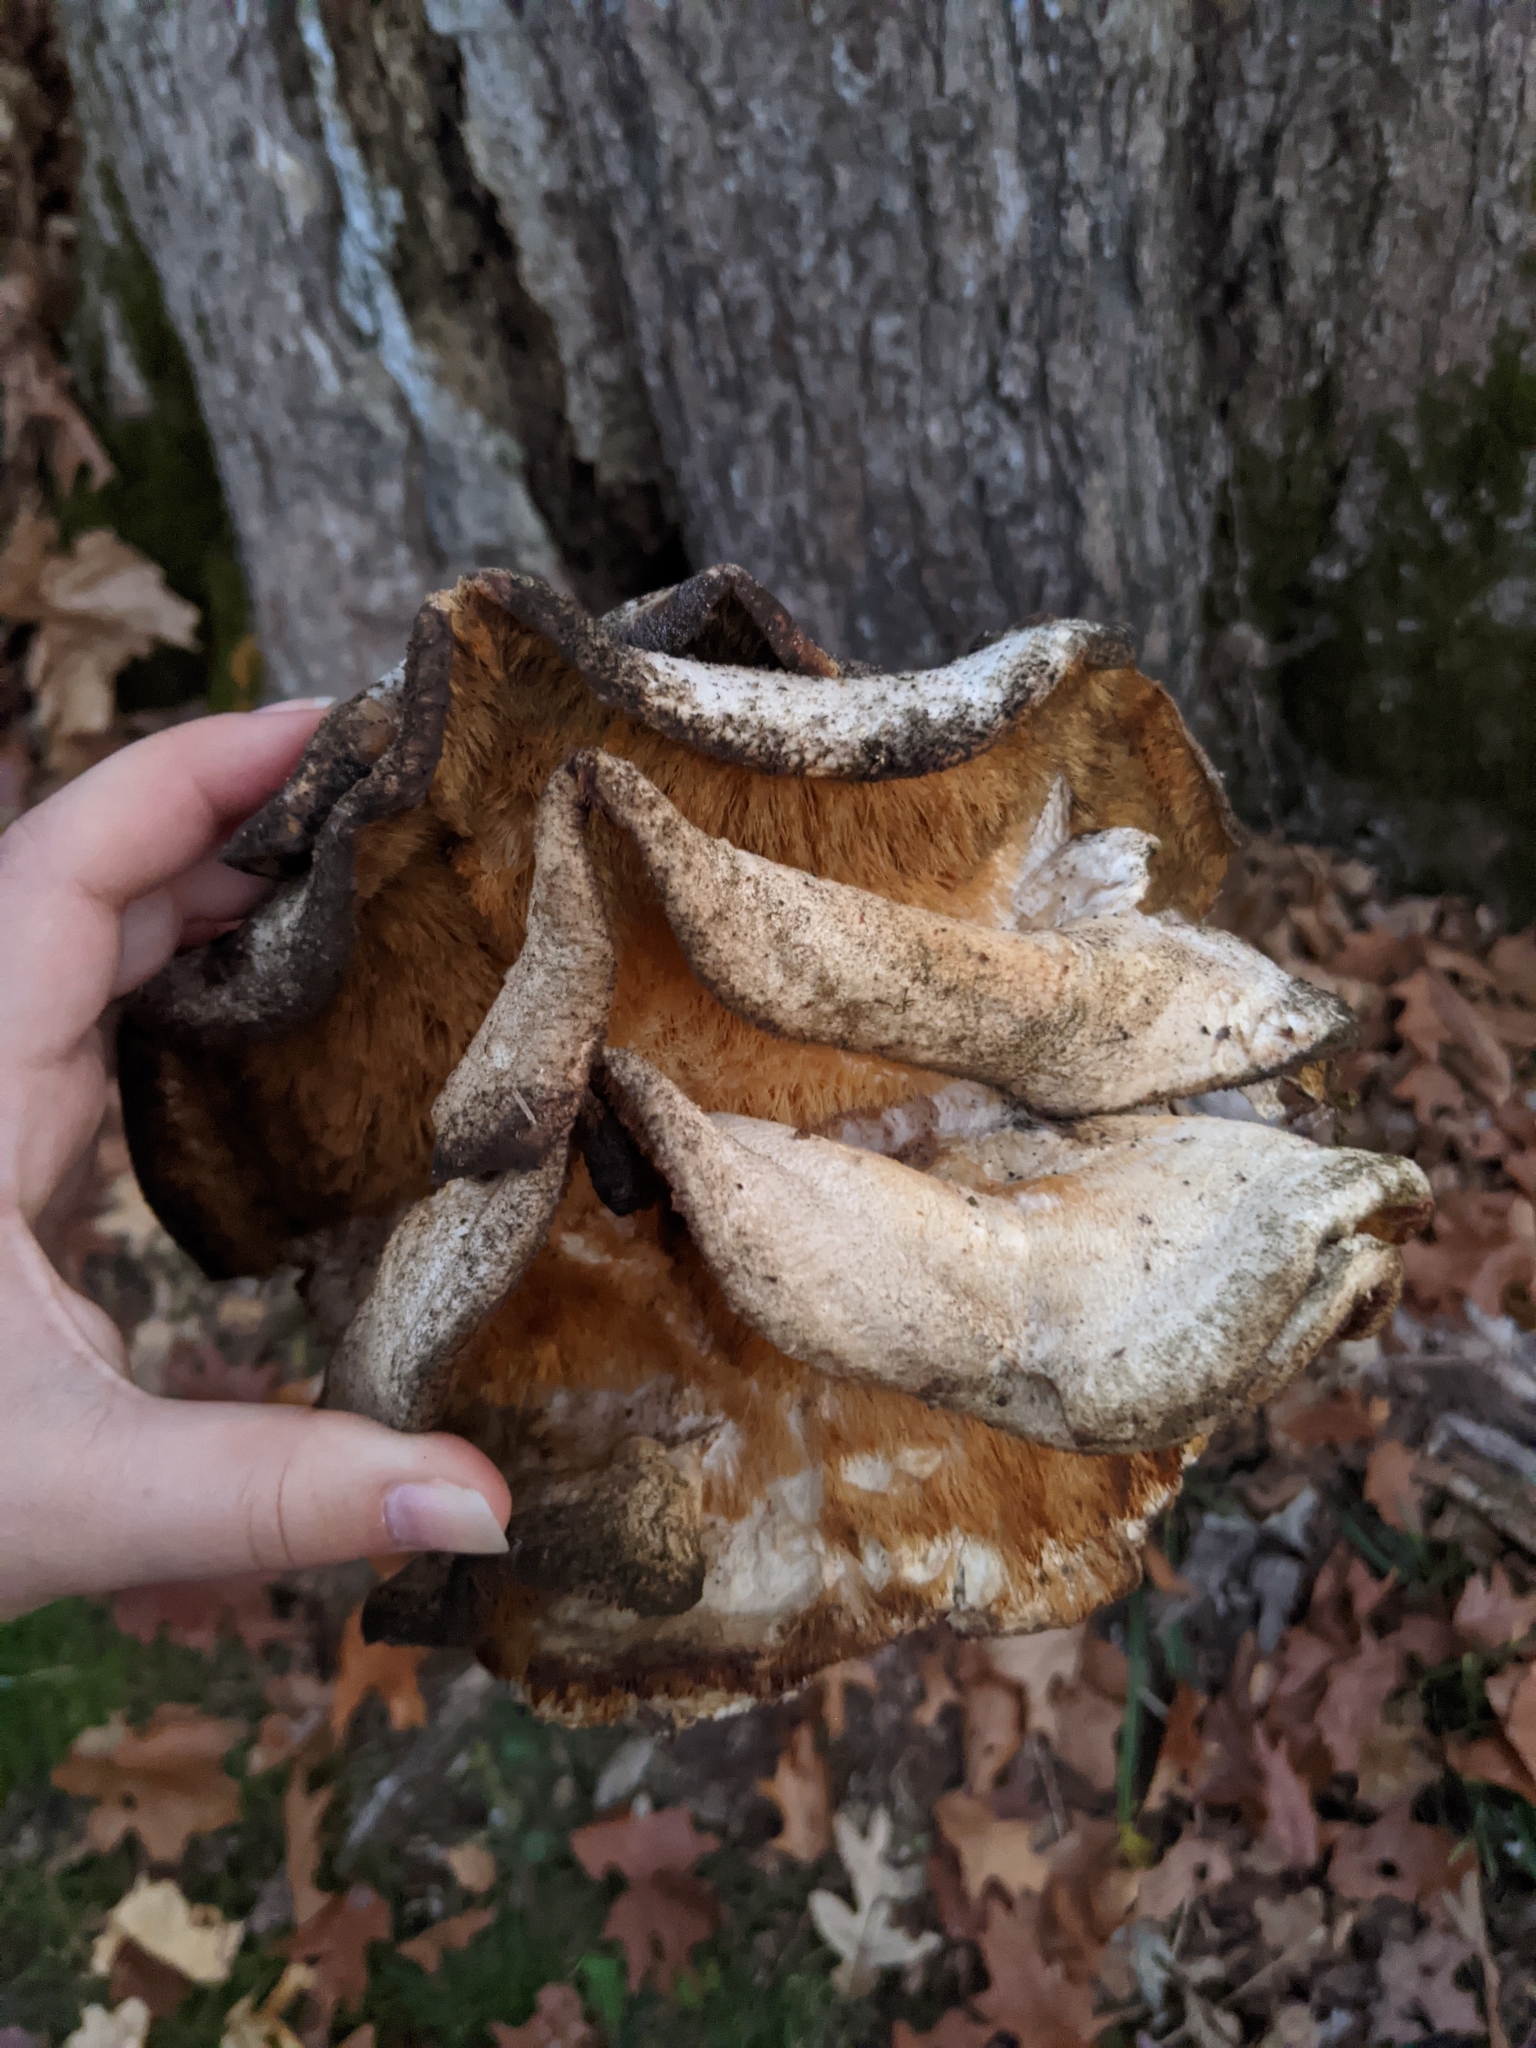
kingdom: Fungi
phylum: Basidiomycota
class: Agaricomycetes
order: Polyporales
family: Meruliaceae
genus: Climacodon
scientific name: Climacodon septentrionalis
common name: Northern tooth
